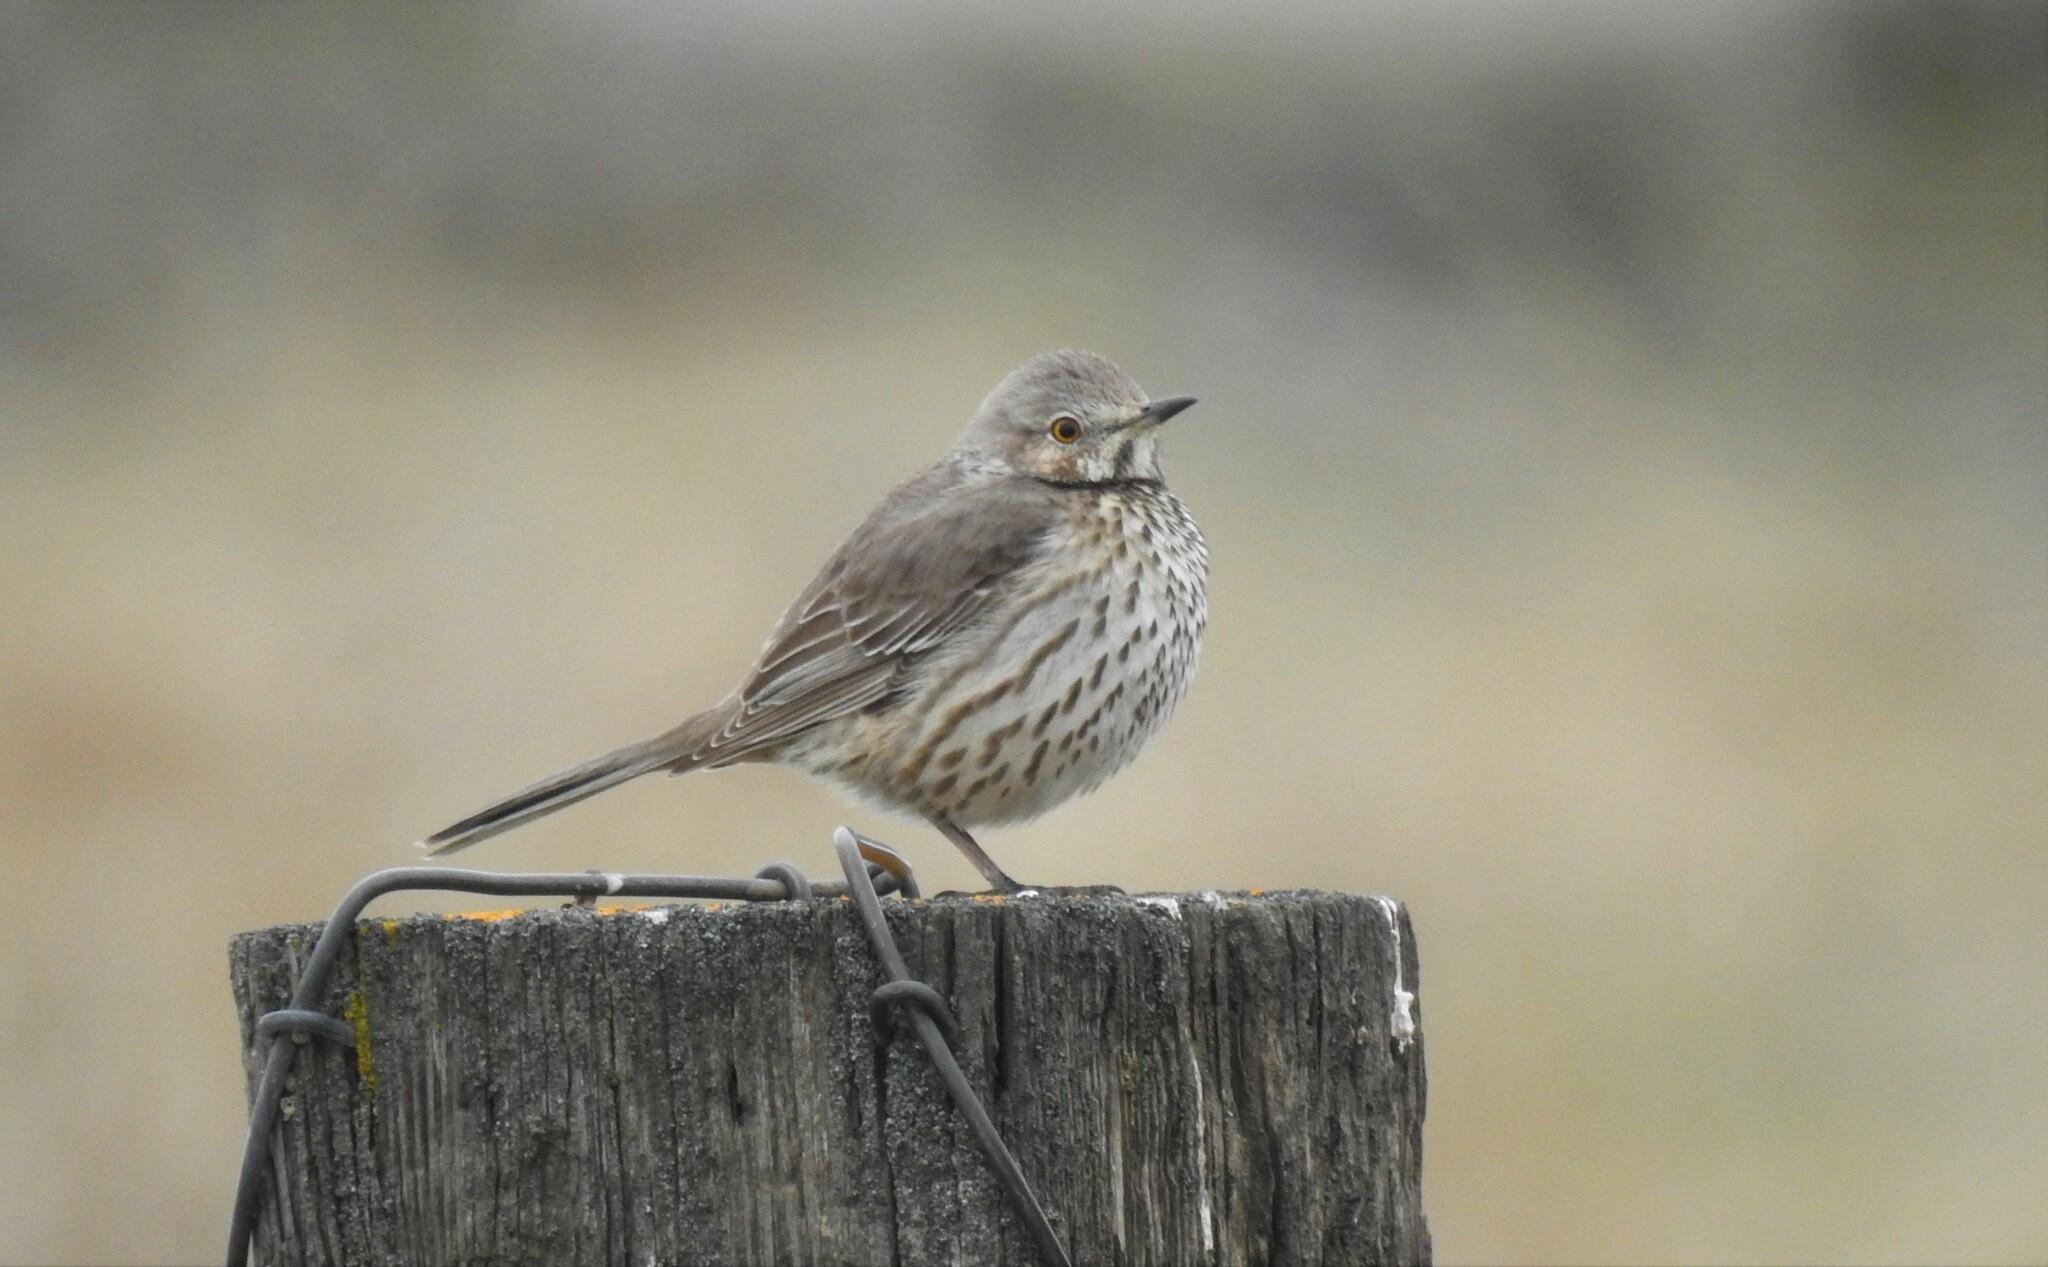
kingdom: Animalia
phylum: Chordata
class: Aves
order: Passeriformes
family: Mimidae
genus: Oreoscoptes
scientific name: Oreoscoptes montanus
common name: Sage thrasher
